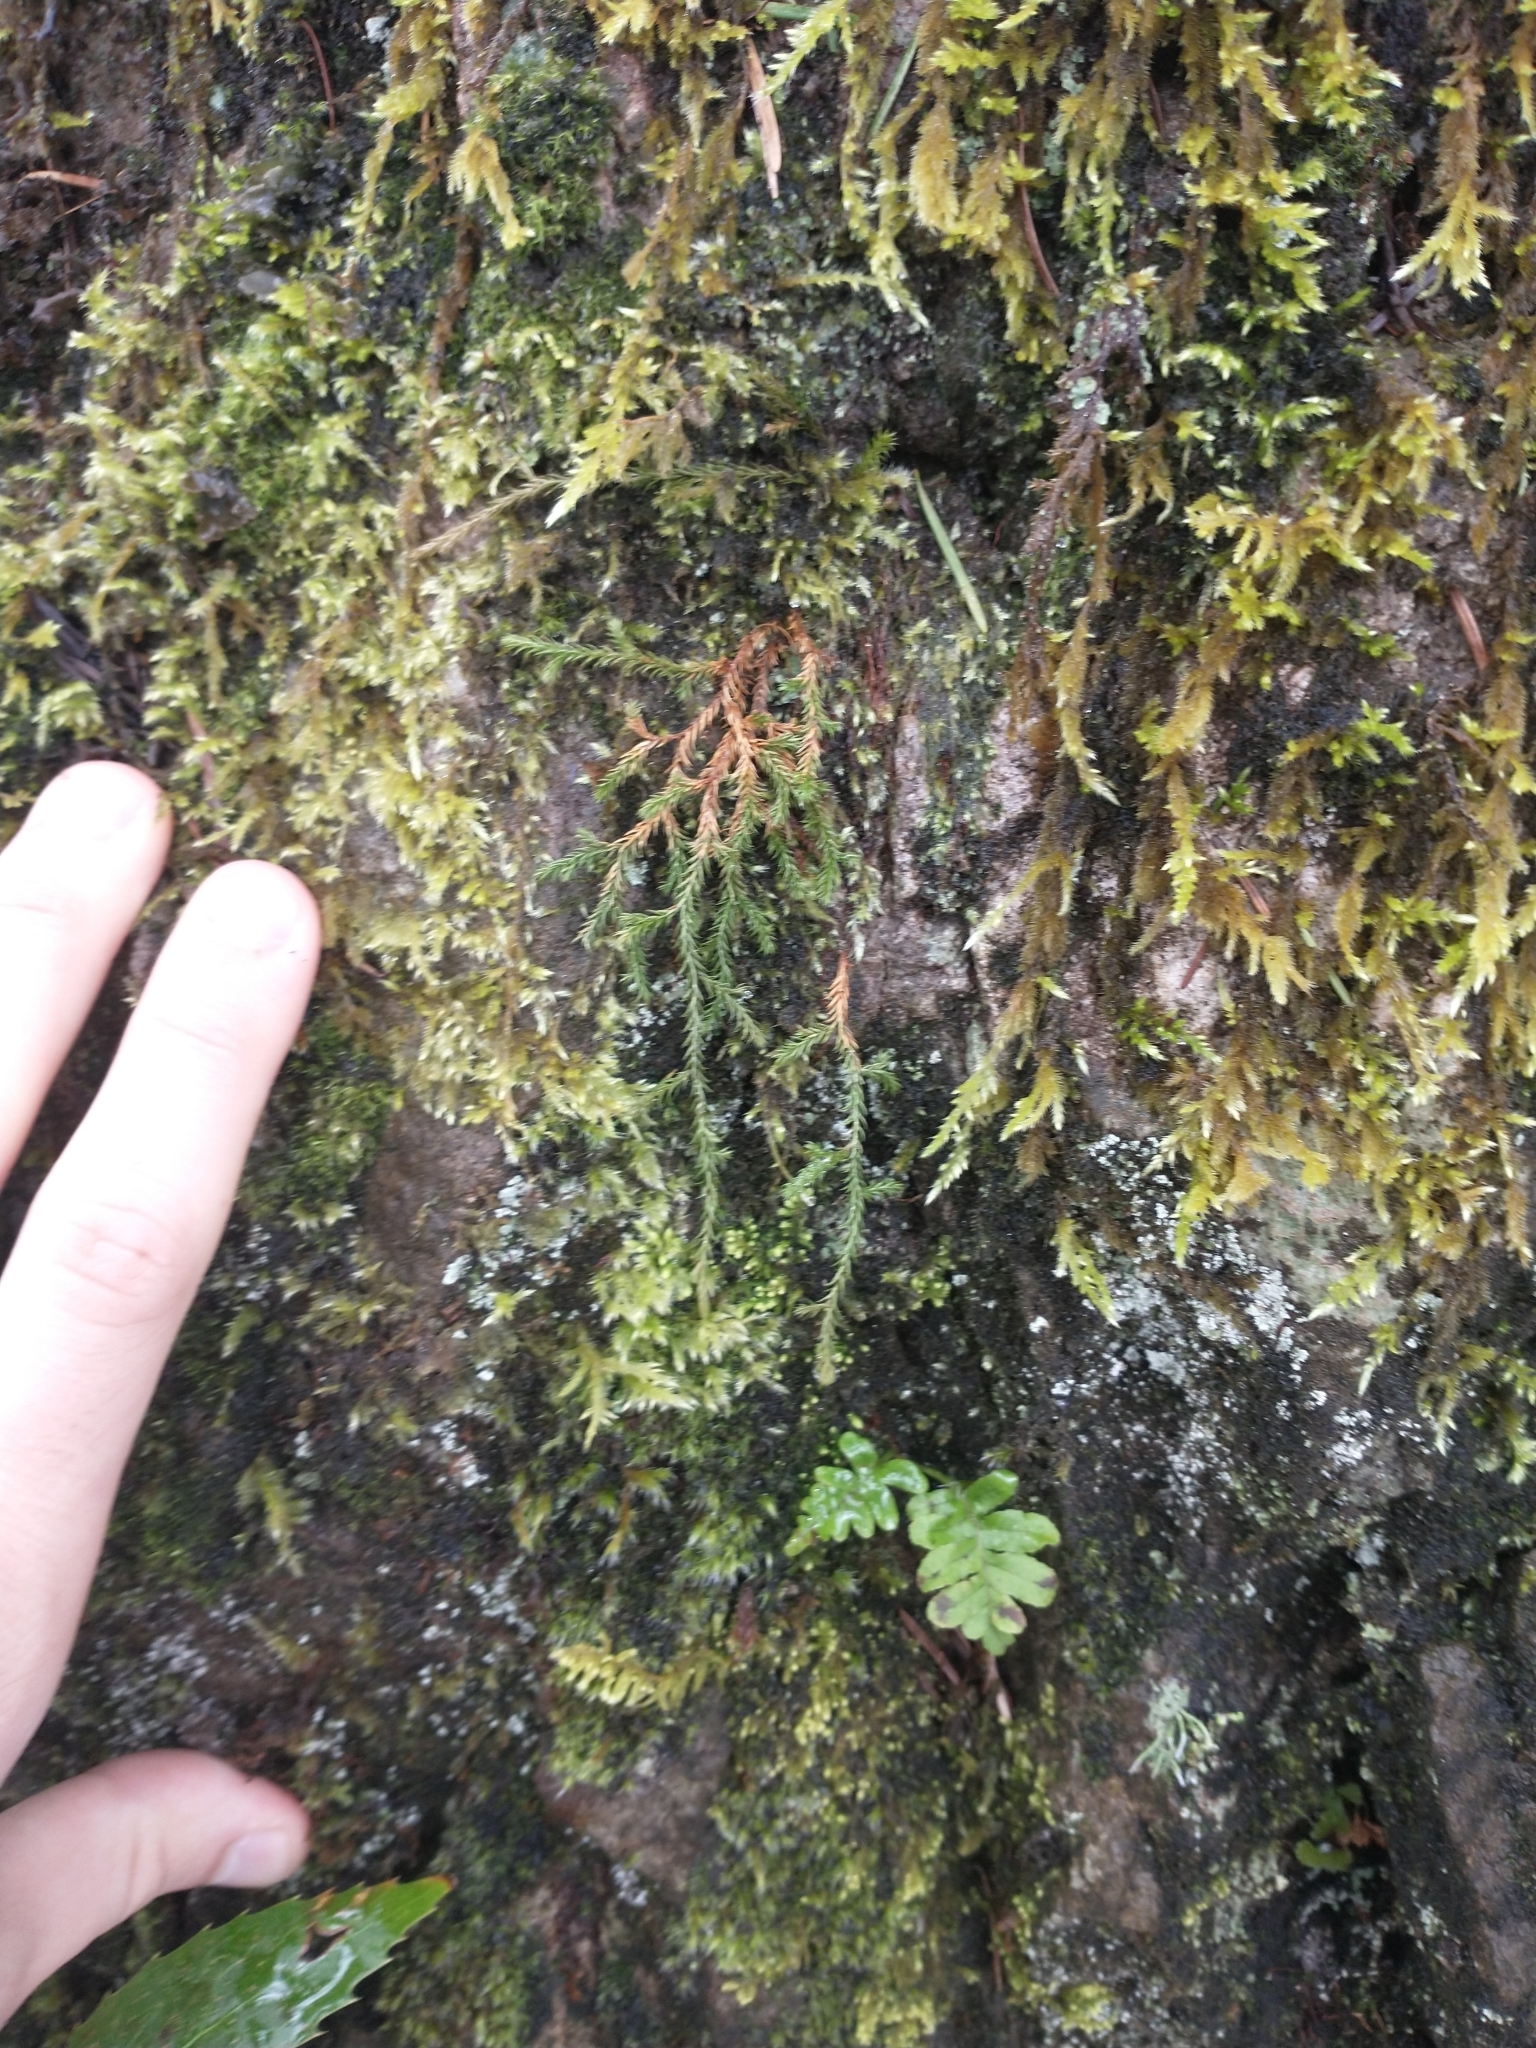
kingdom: Plantae
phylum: Tracheophyta
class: Lycopodiopsida
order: Selaginellales
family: Selaginellaceae
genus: Selaginella
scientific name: Selaginella oregana
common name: Oregon selaginella
